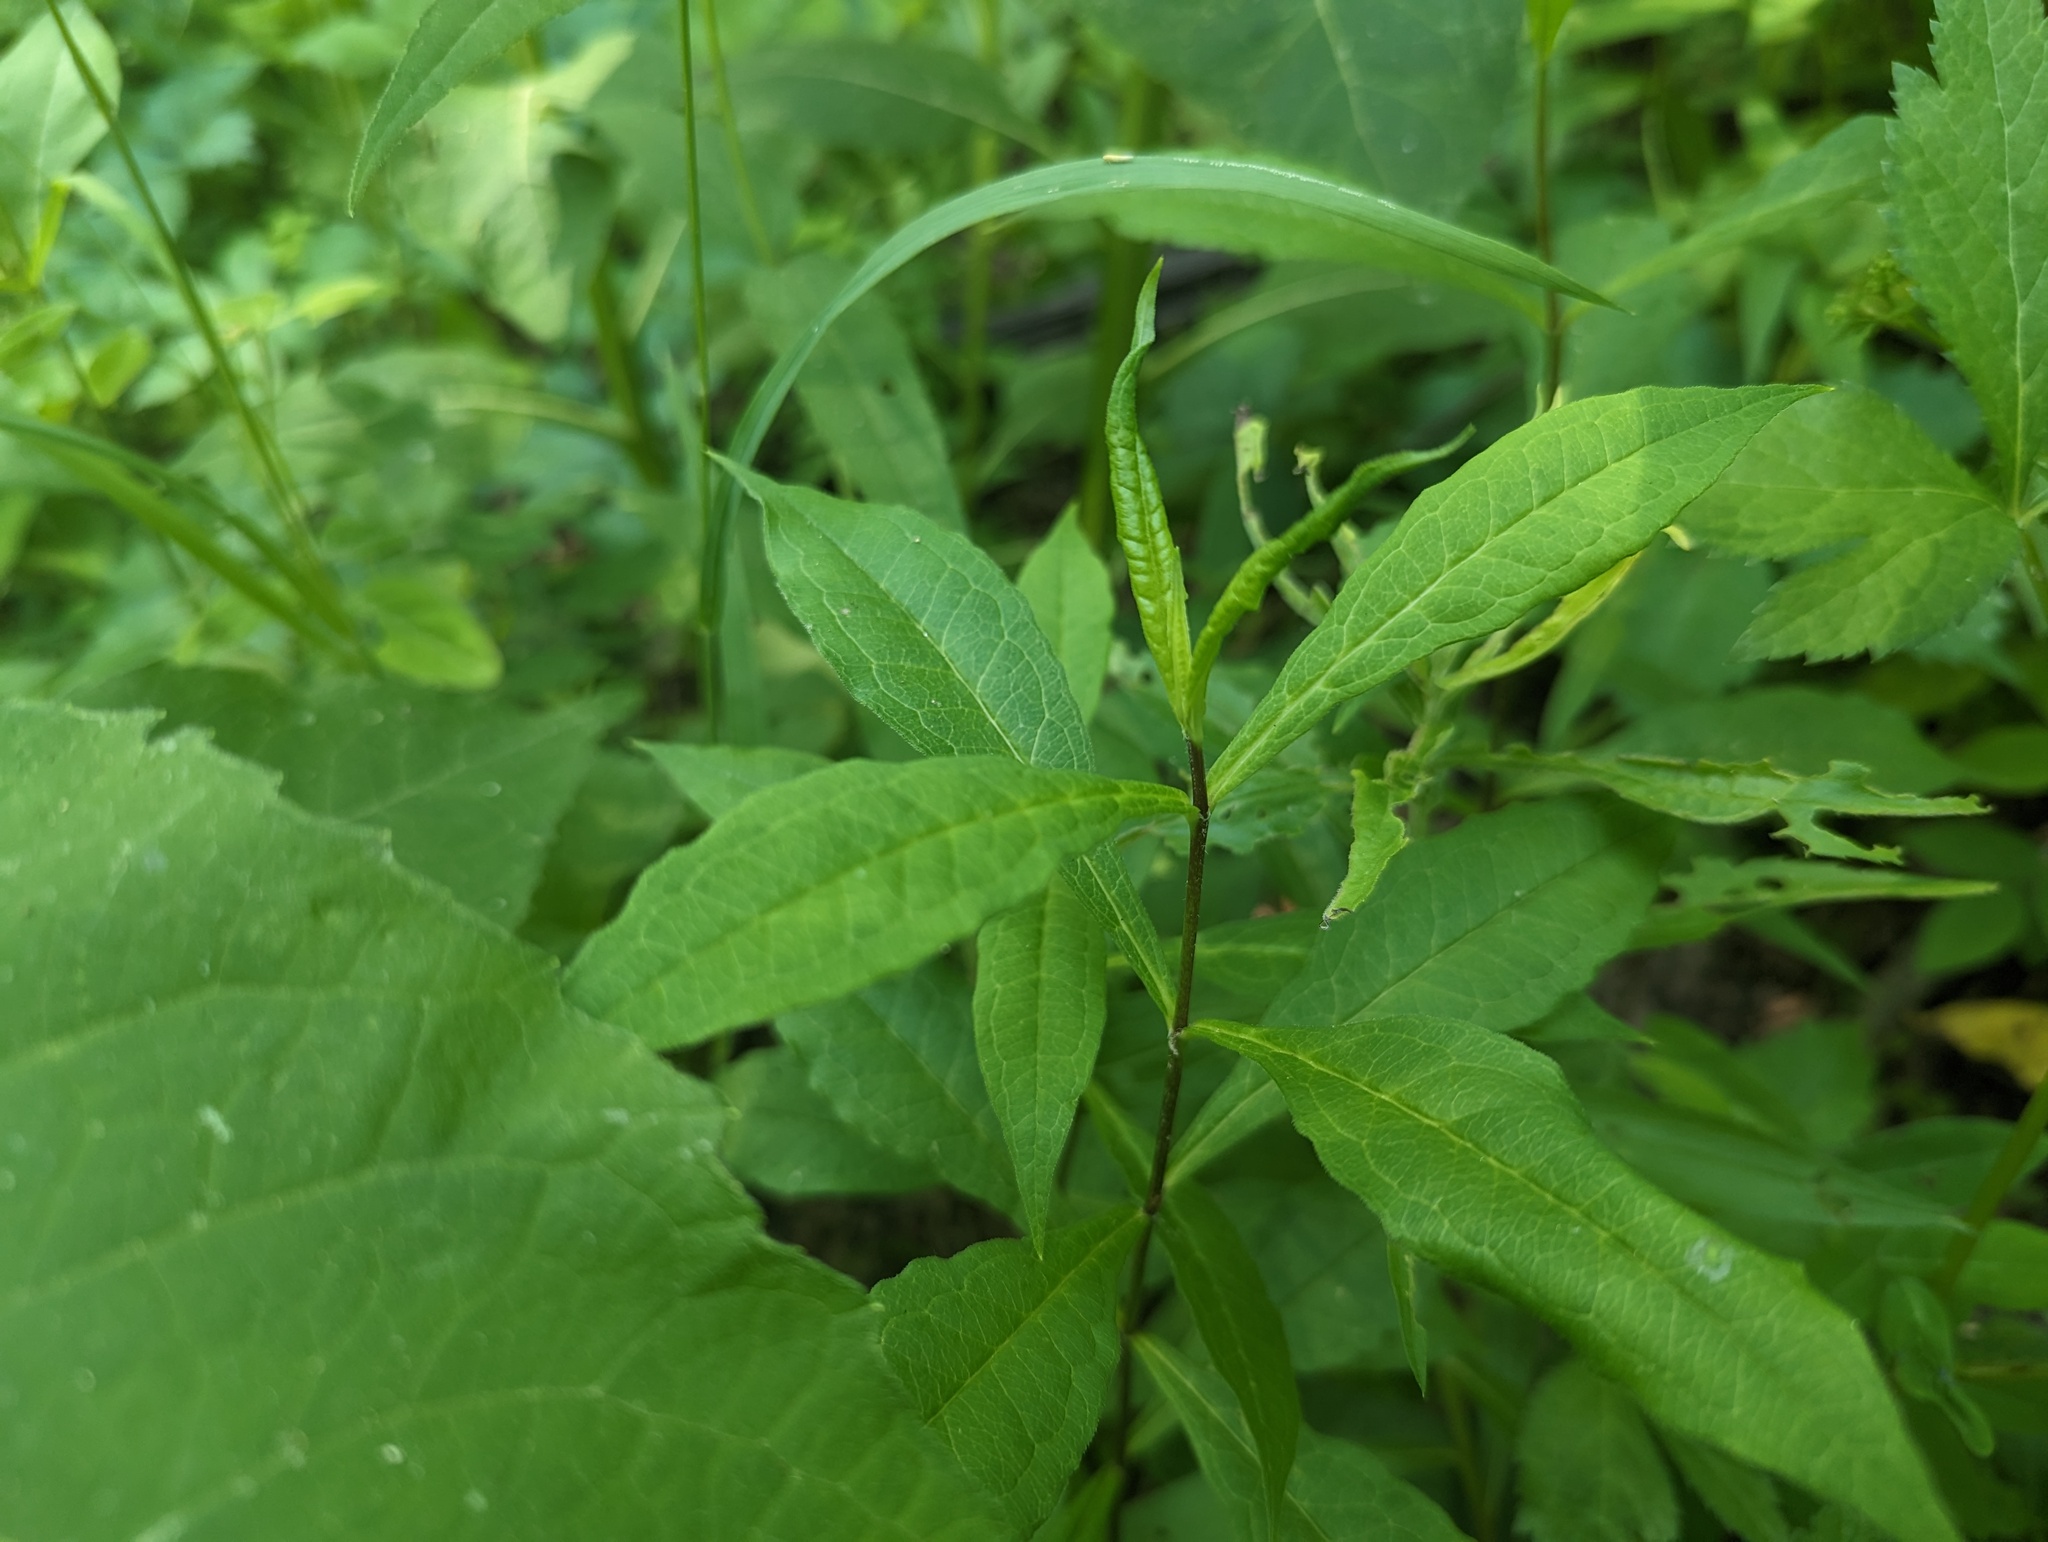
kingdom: Plantae
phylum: Tracheophyta
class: Magnoliopsida
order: Ericales
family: Polemoniaceae
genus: Phlox
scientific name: Phlox paniculata
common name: Fall phlox
